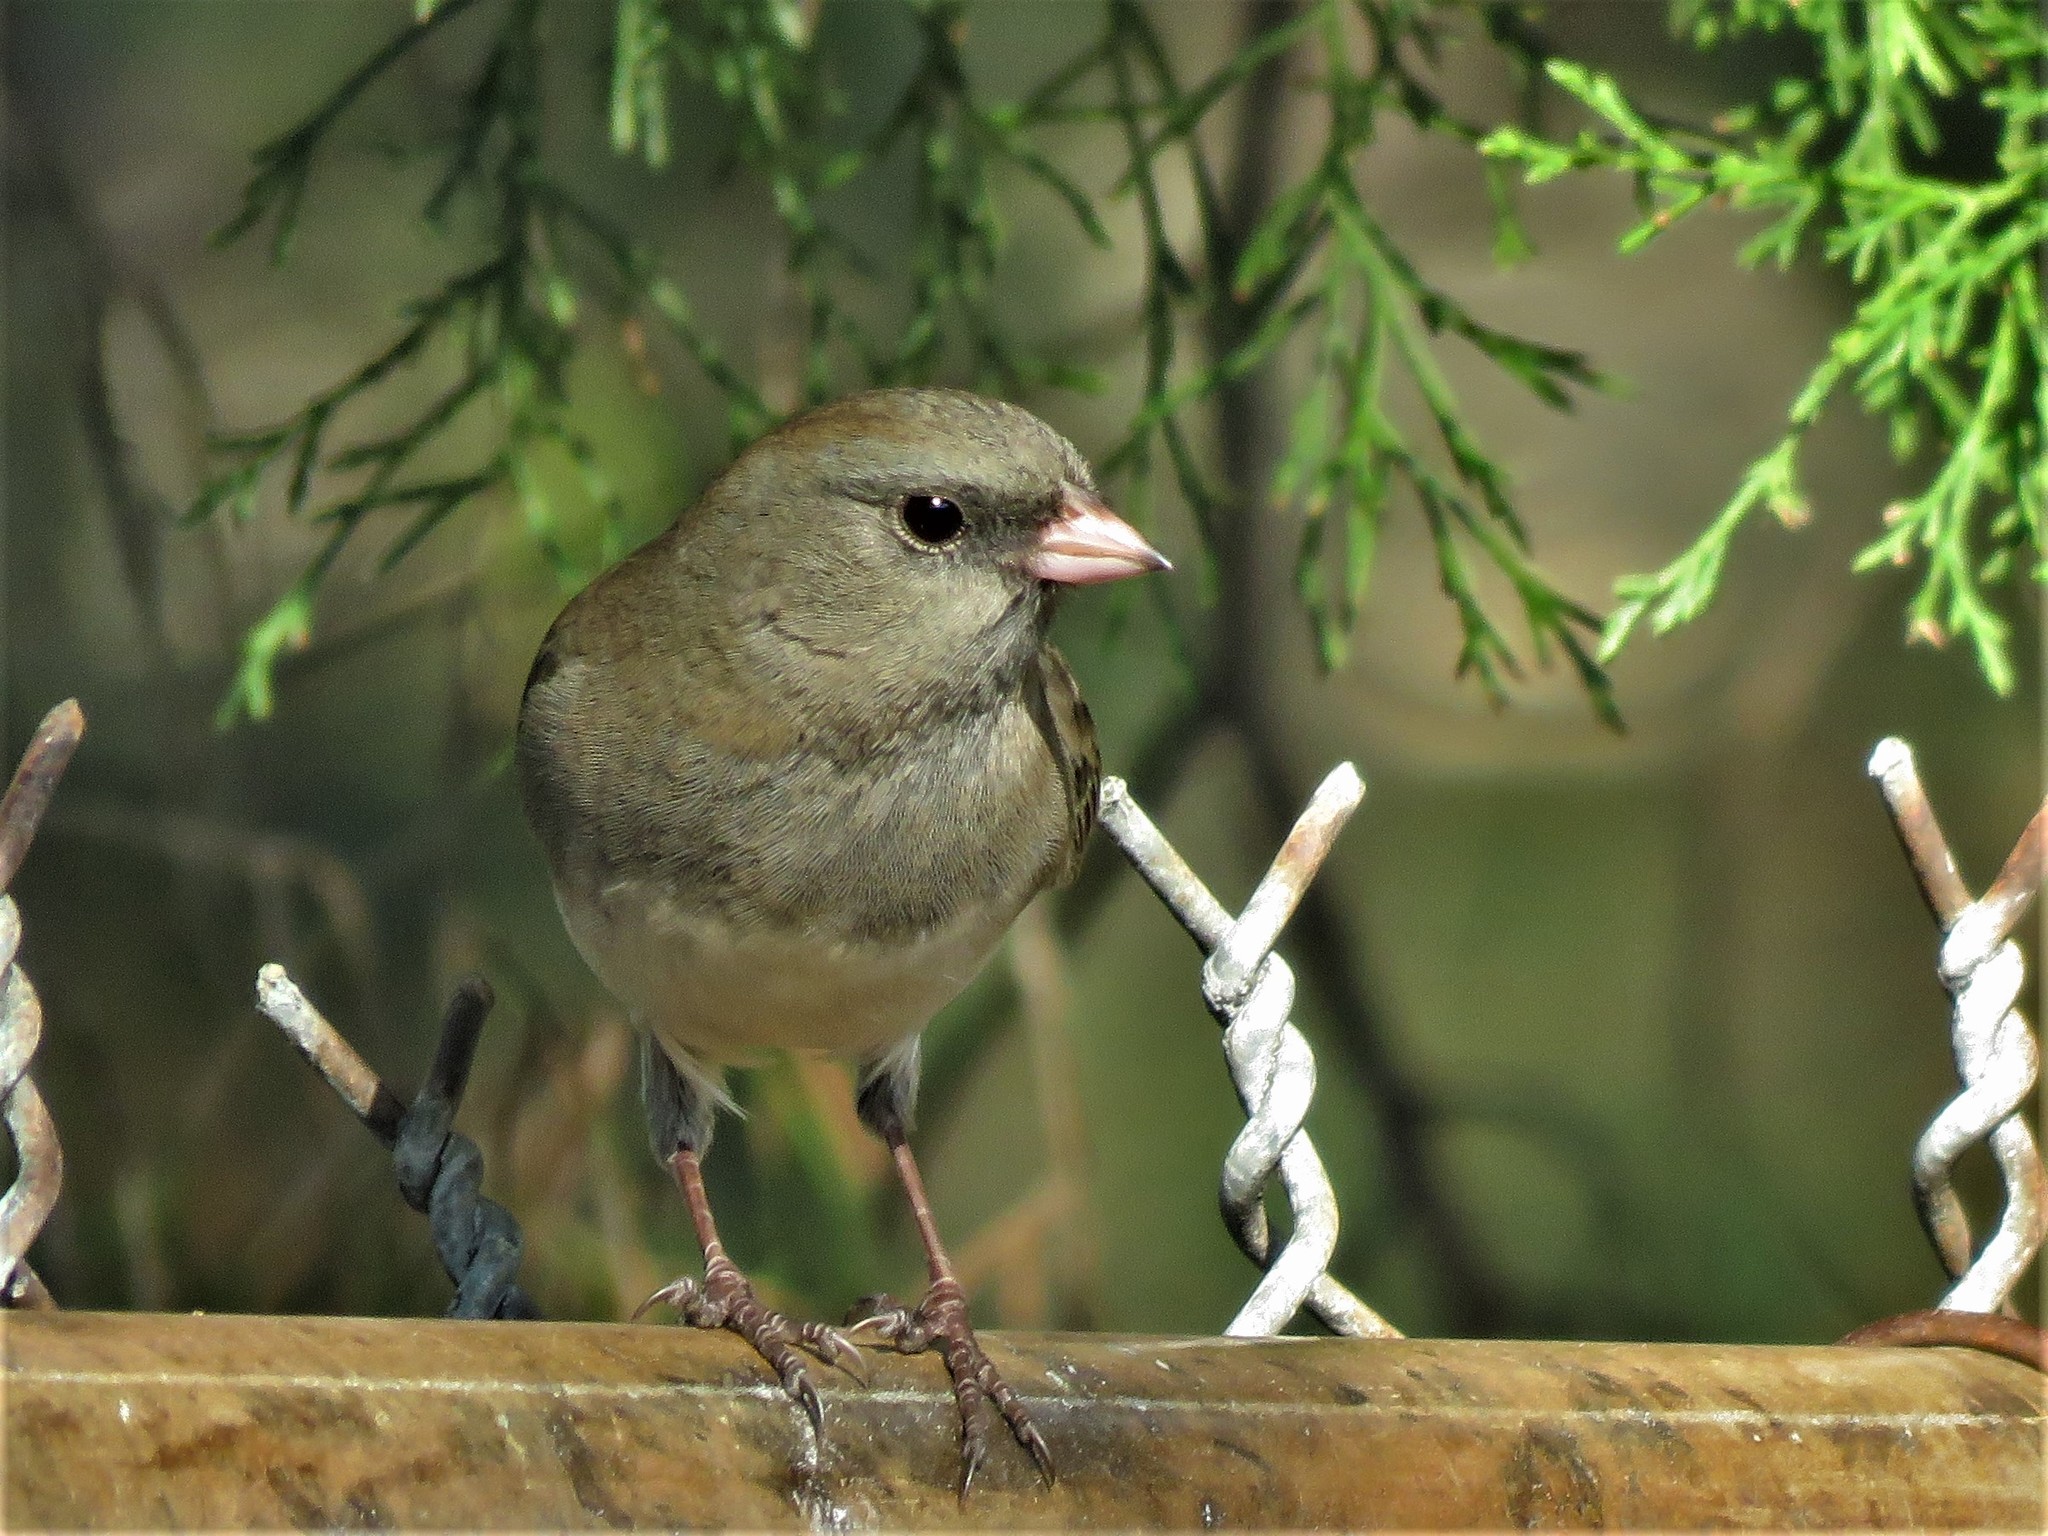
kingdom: Animalia
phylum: Chordata
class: Aves
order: Passeriformes
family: Passerellidae
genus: Junco
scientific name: Junco hyemalis
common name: Dark-eyed junco
